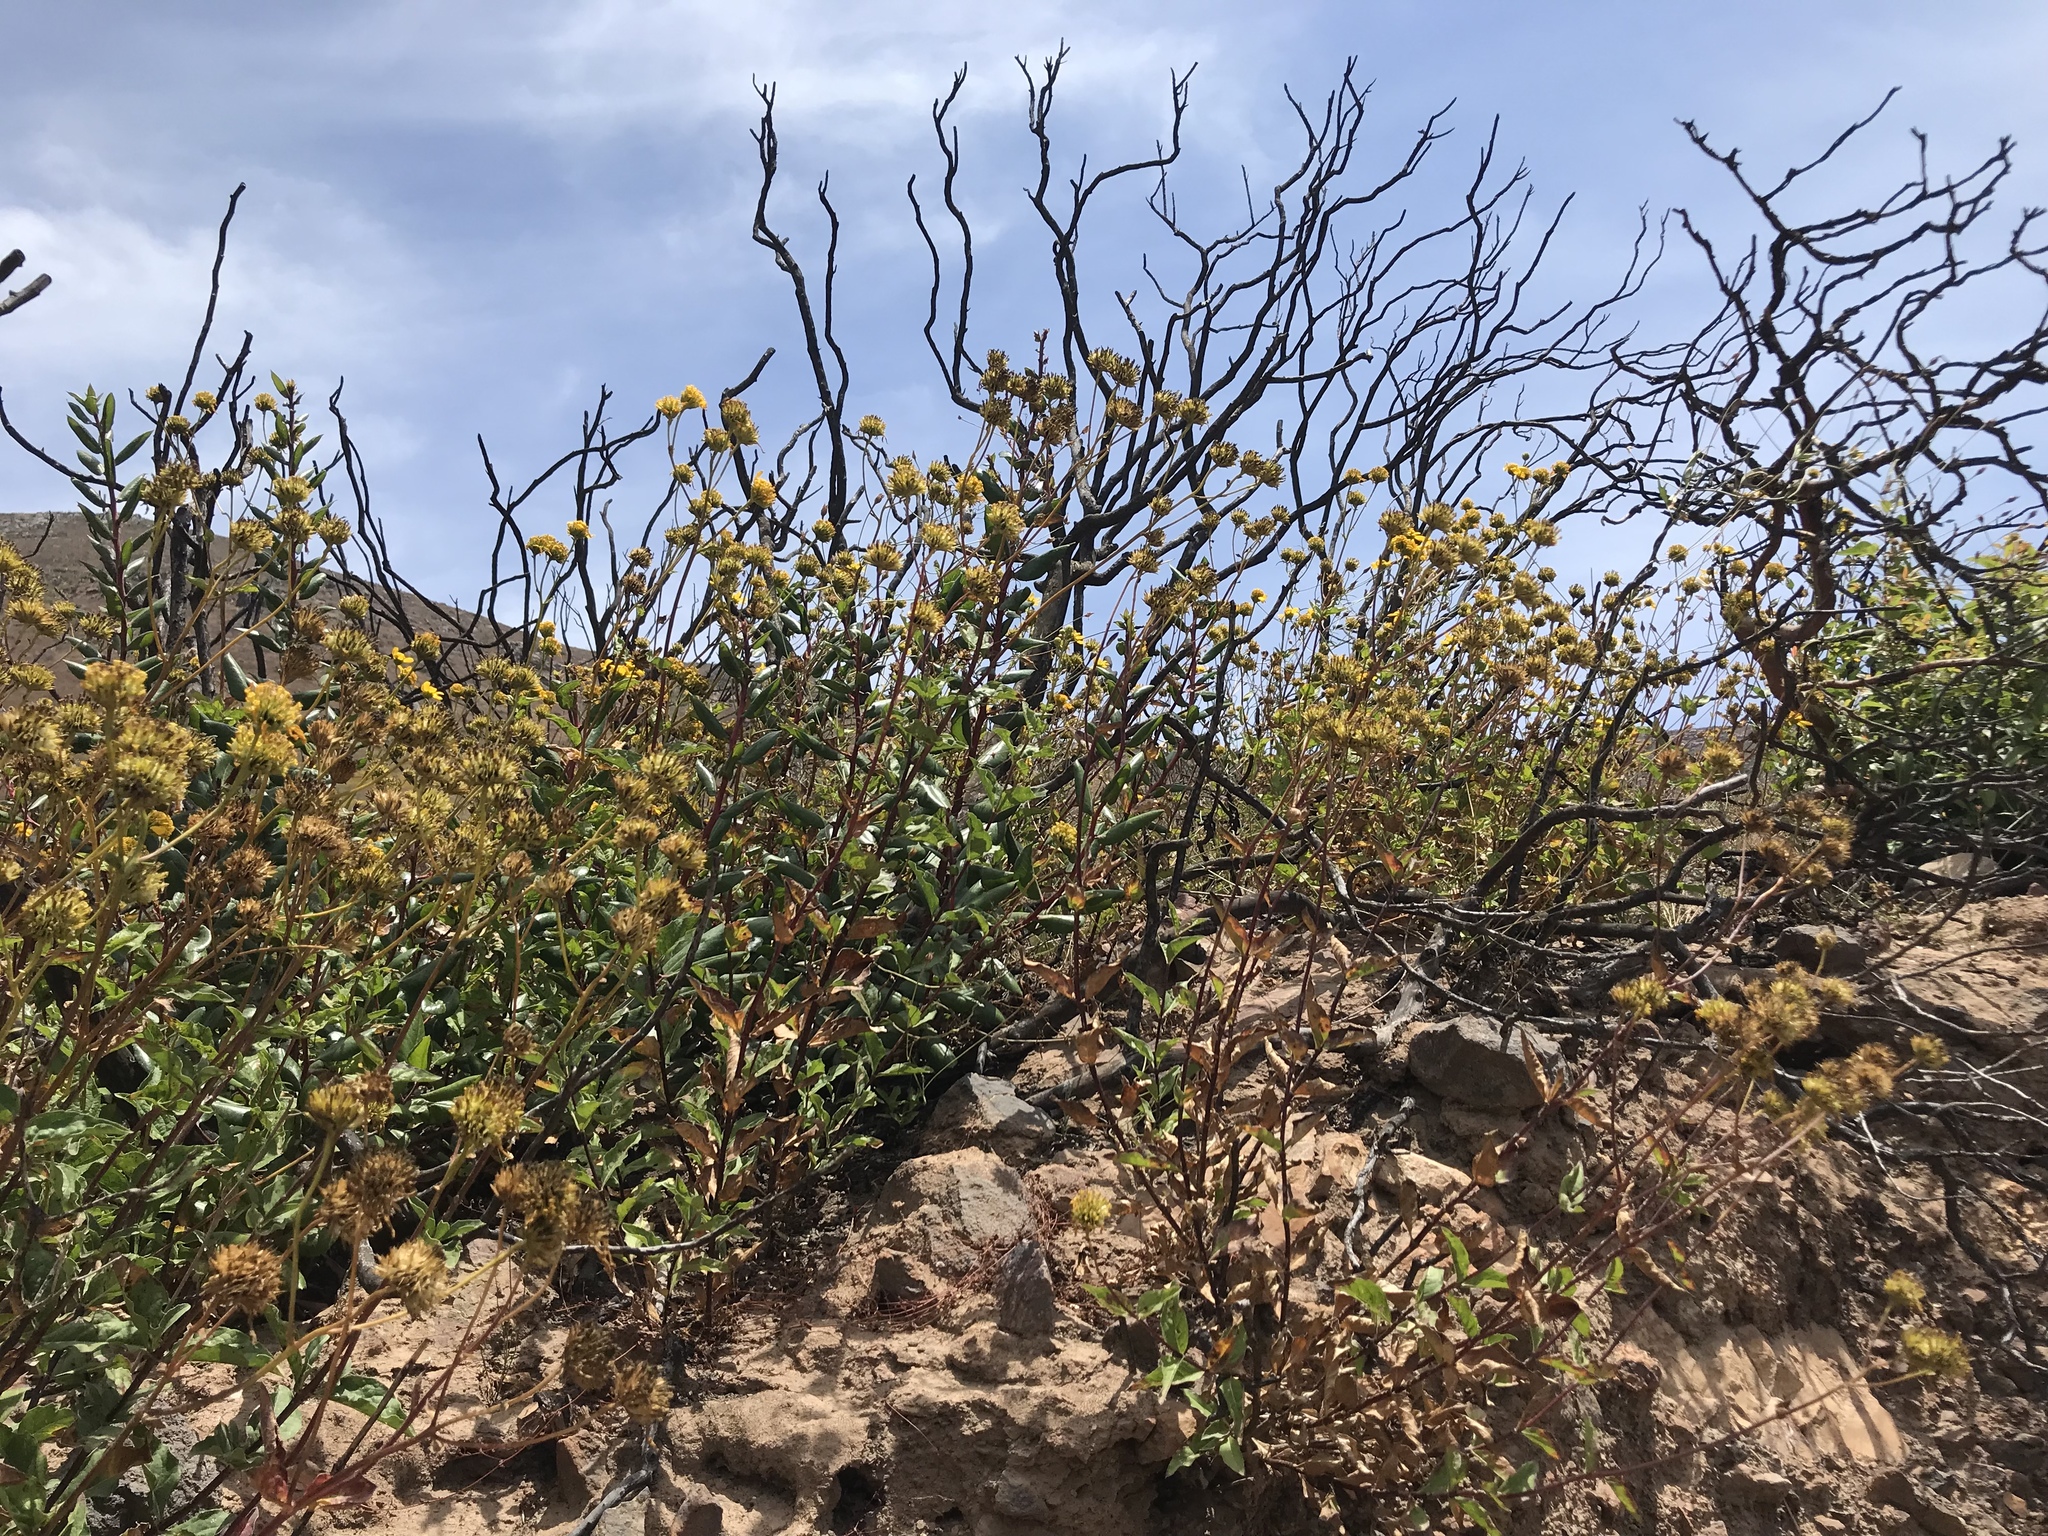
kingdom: Plantae
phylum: Tracheophyta
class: Magnoliopsida
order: Asterales
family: Asteraceae
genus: Verbesina
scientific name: Verbesina dissita
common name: Big-leaf crownbeard
